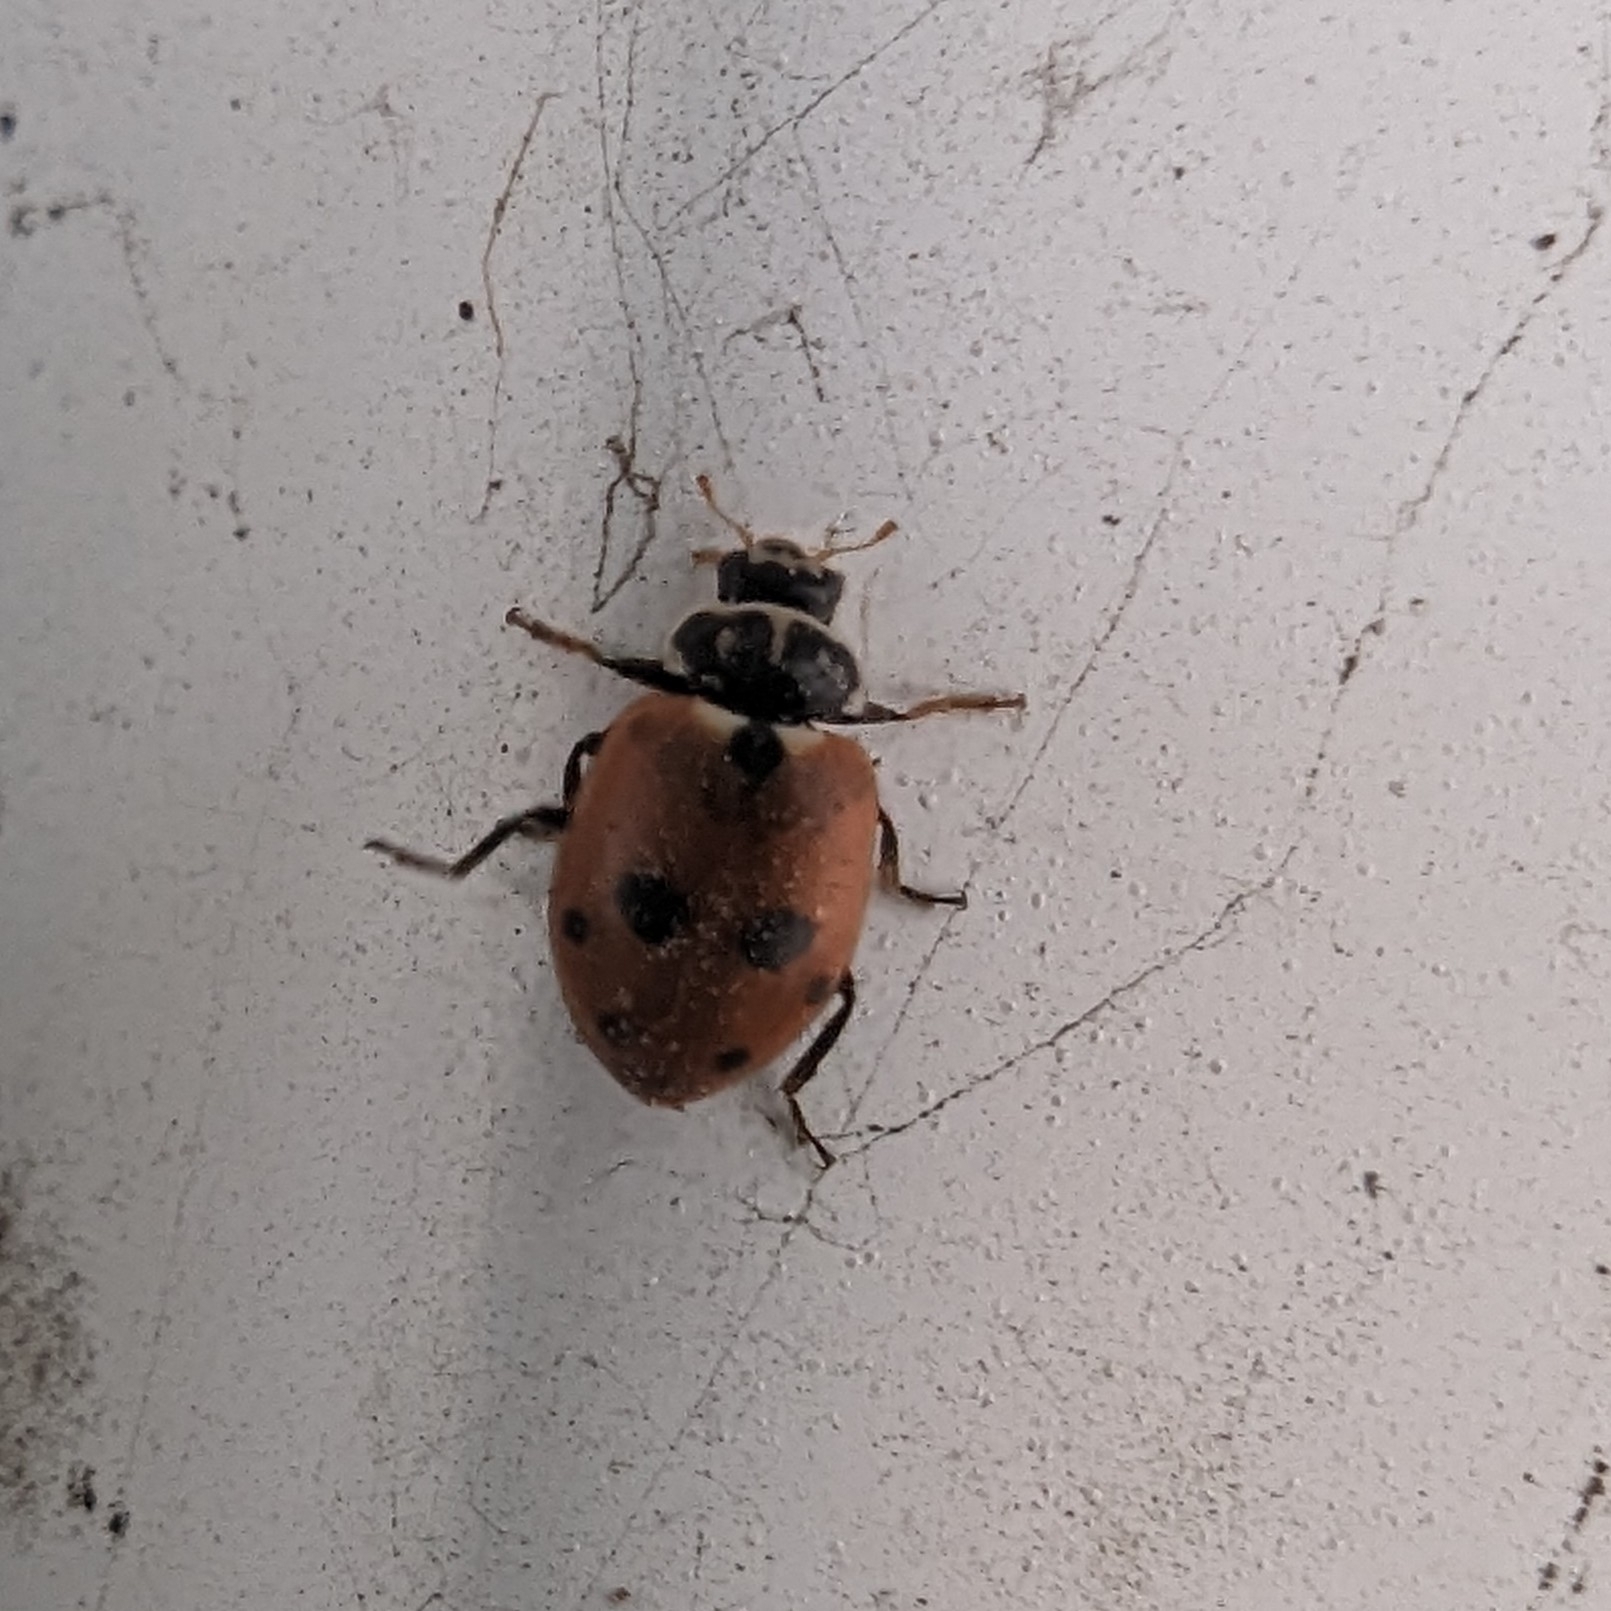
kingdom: Animalia
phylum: Arthropoda
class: Insecta
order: Coleoptera
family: Coccinellidae
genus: Hippodamia
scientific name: Hippodamia variegata
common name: Ladybird beetle
